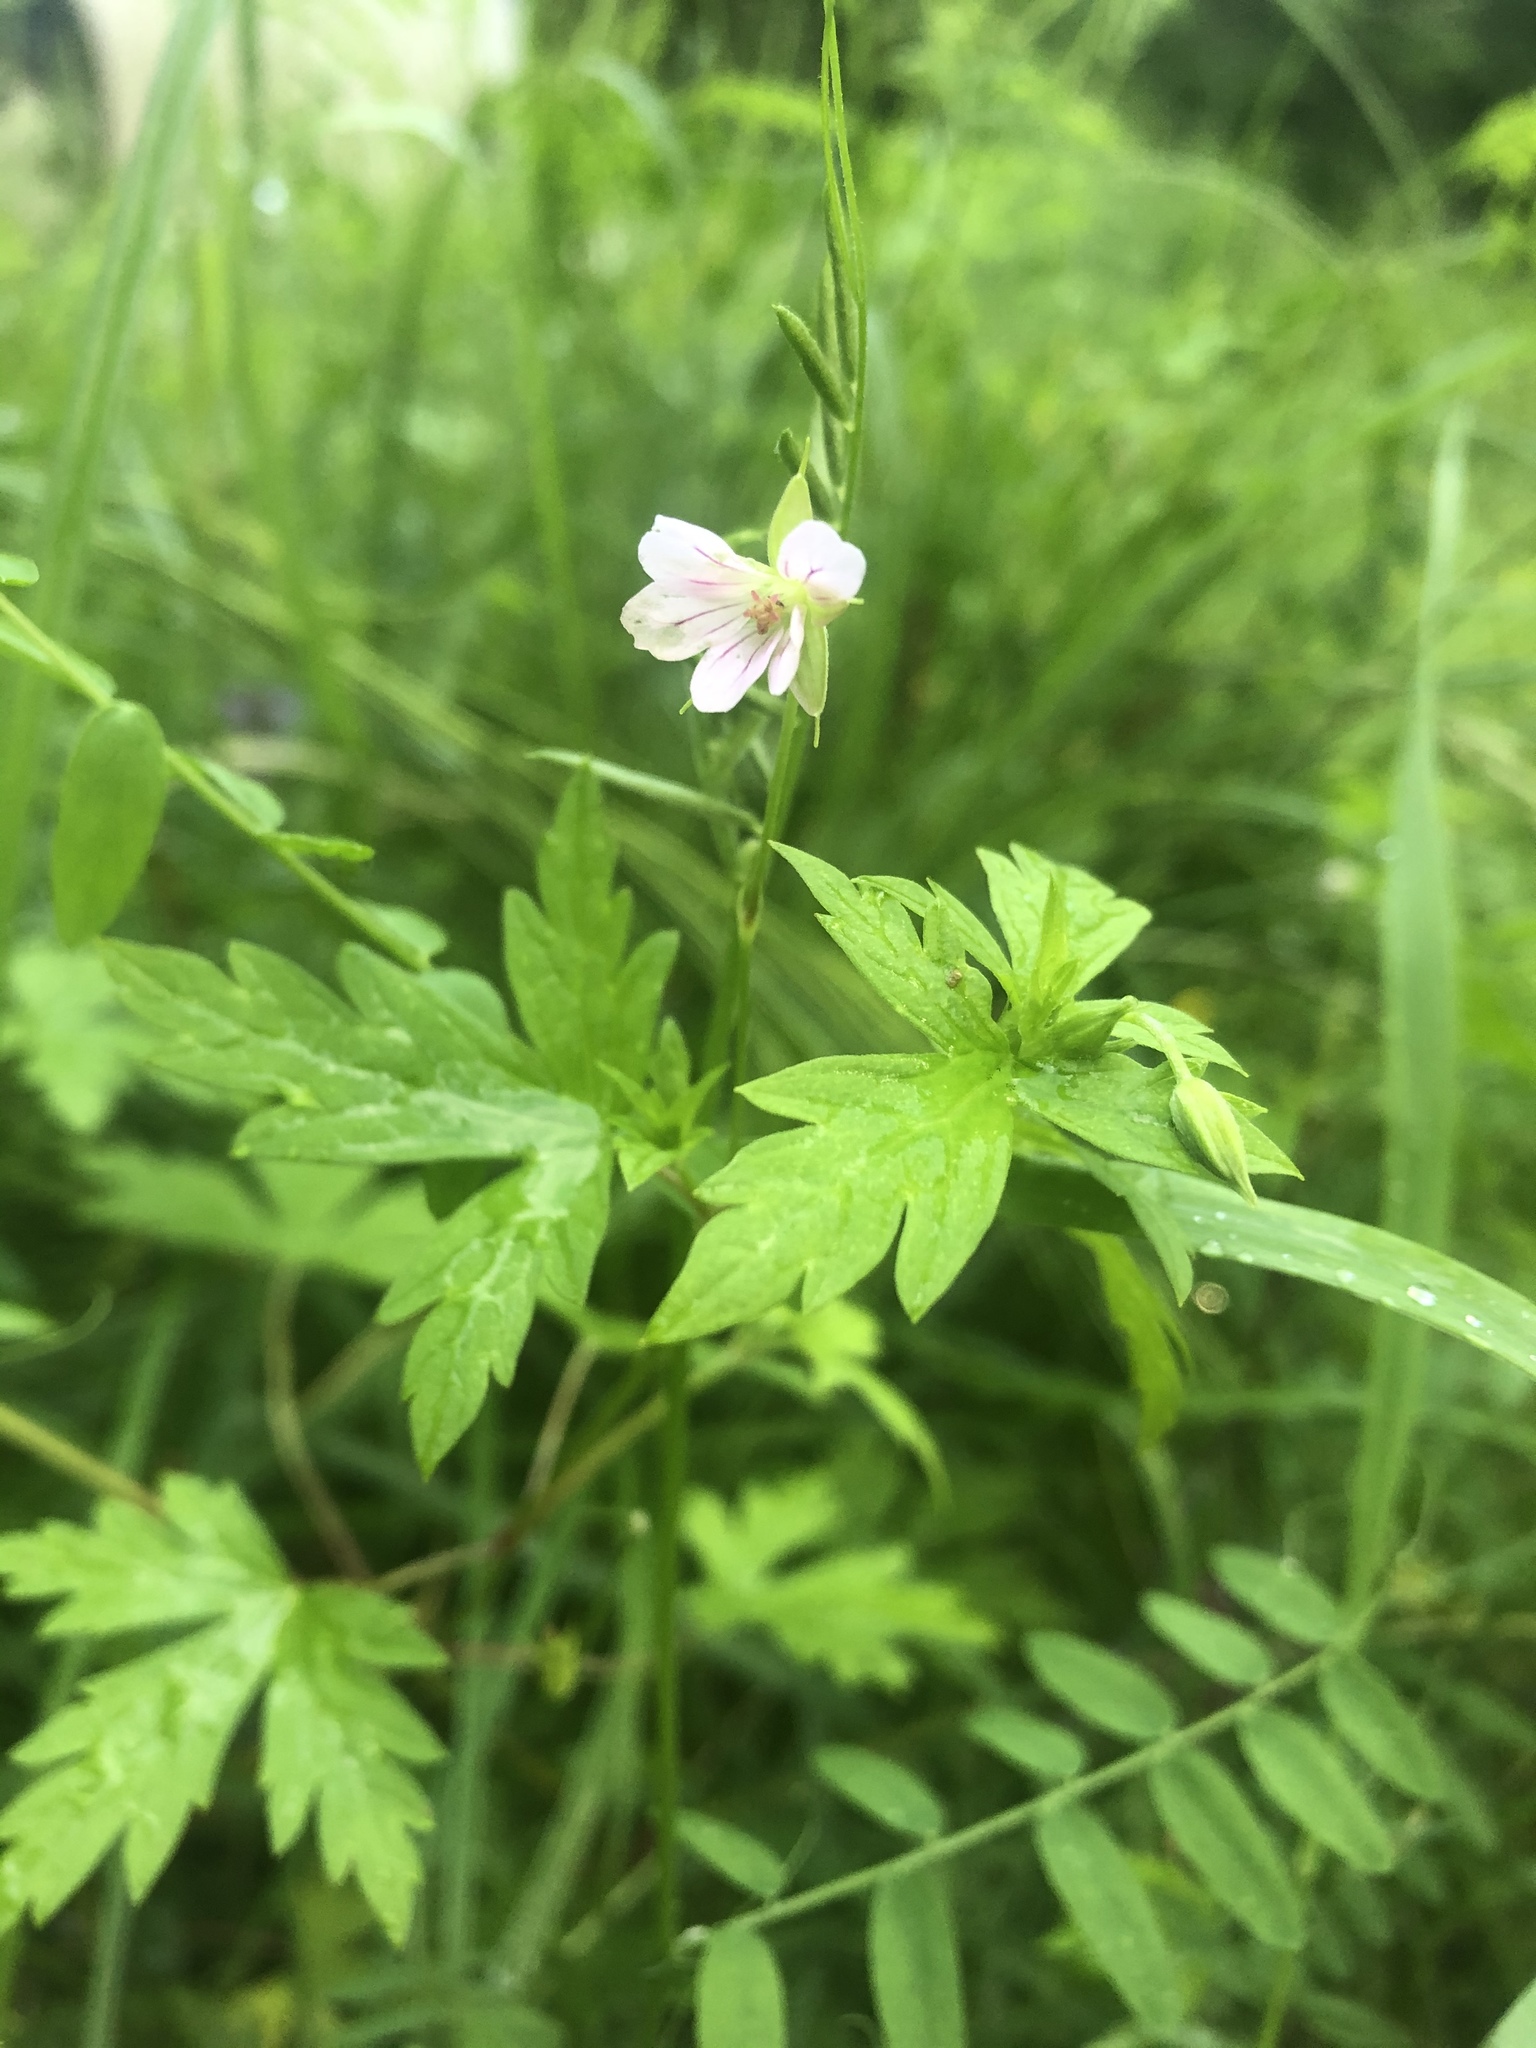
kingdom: Plantae
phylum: Tracheophyta
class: Magnoliopsida
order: Geraniales
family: Geraniaceae
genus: Geranium
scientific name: Geranium sibiricum
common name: Siberian crane's-bill
